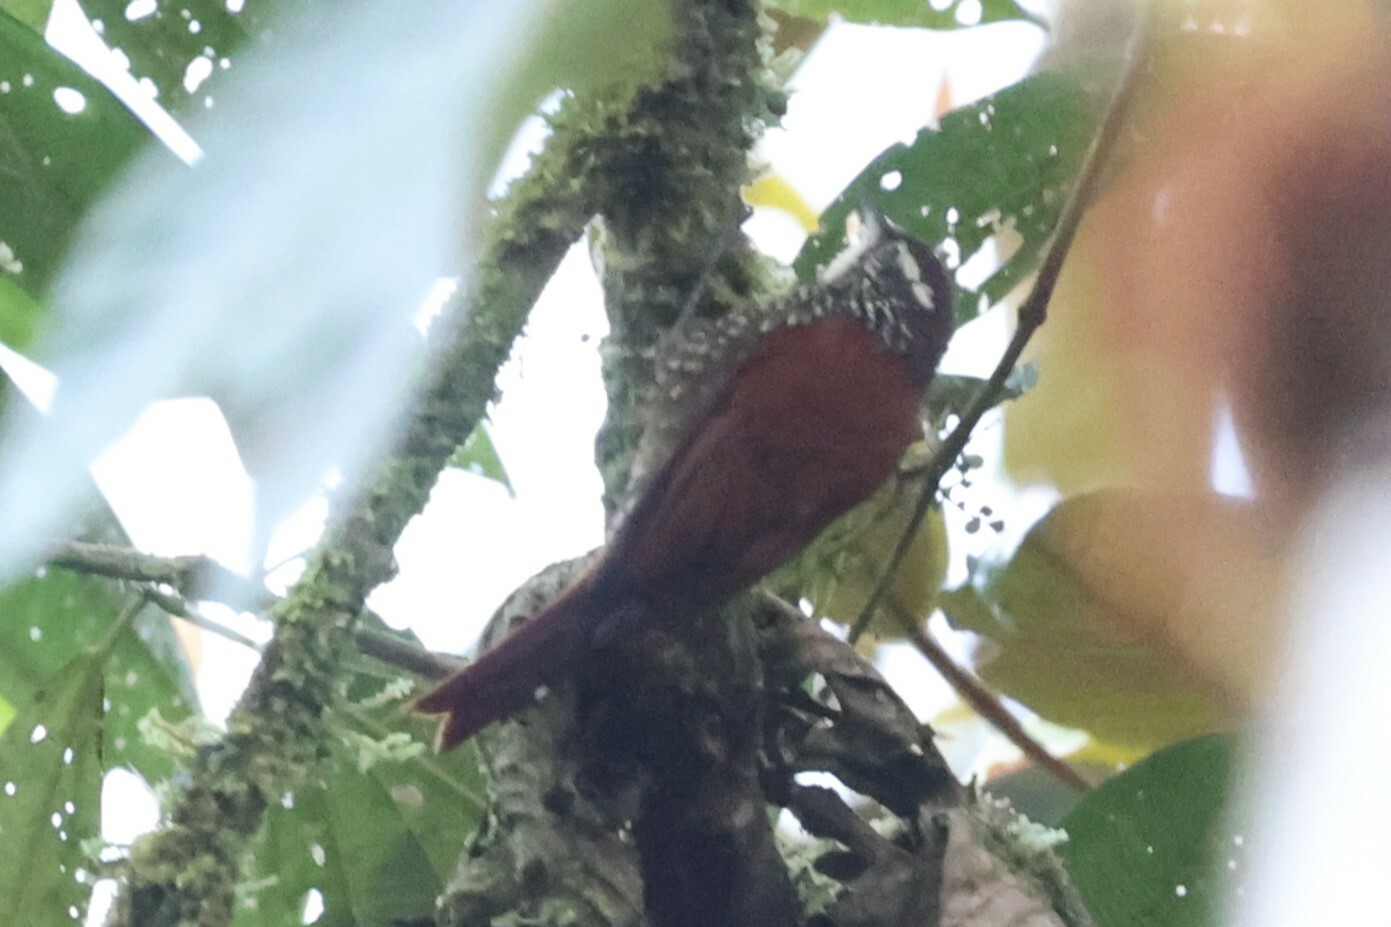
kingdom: Animalia
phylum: Chordata
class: Aves
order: Passeriformes
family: Furnariidae
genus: Margarornis
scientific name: Margarornis squamiger
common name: Pearled treerunner
